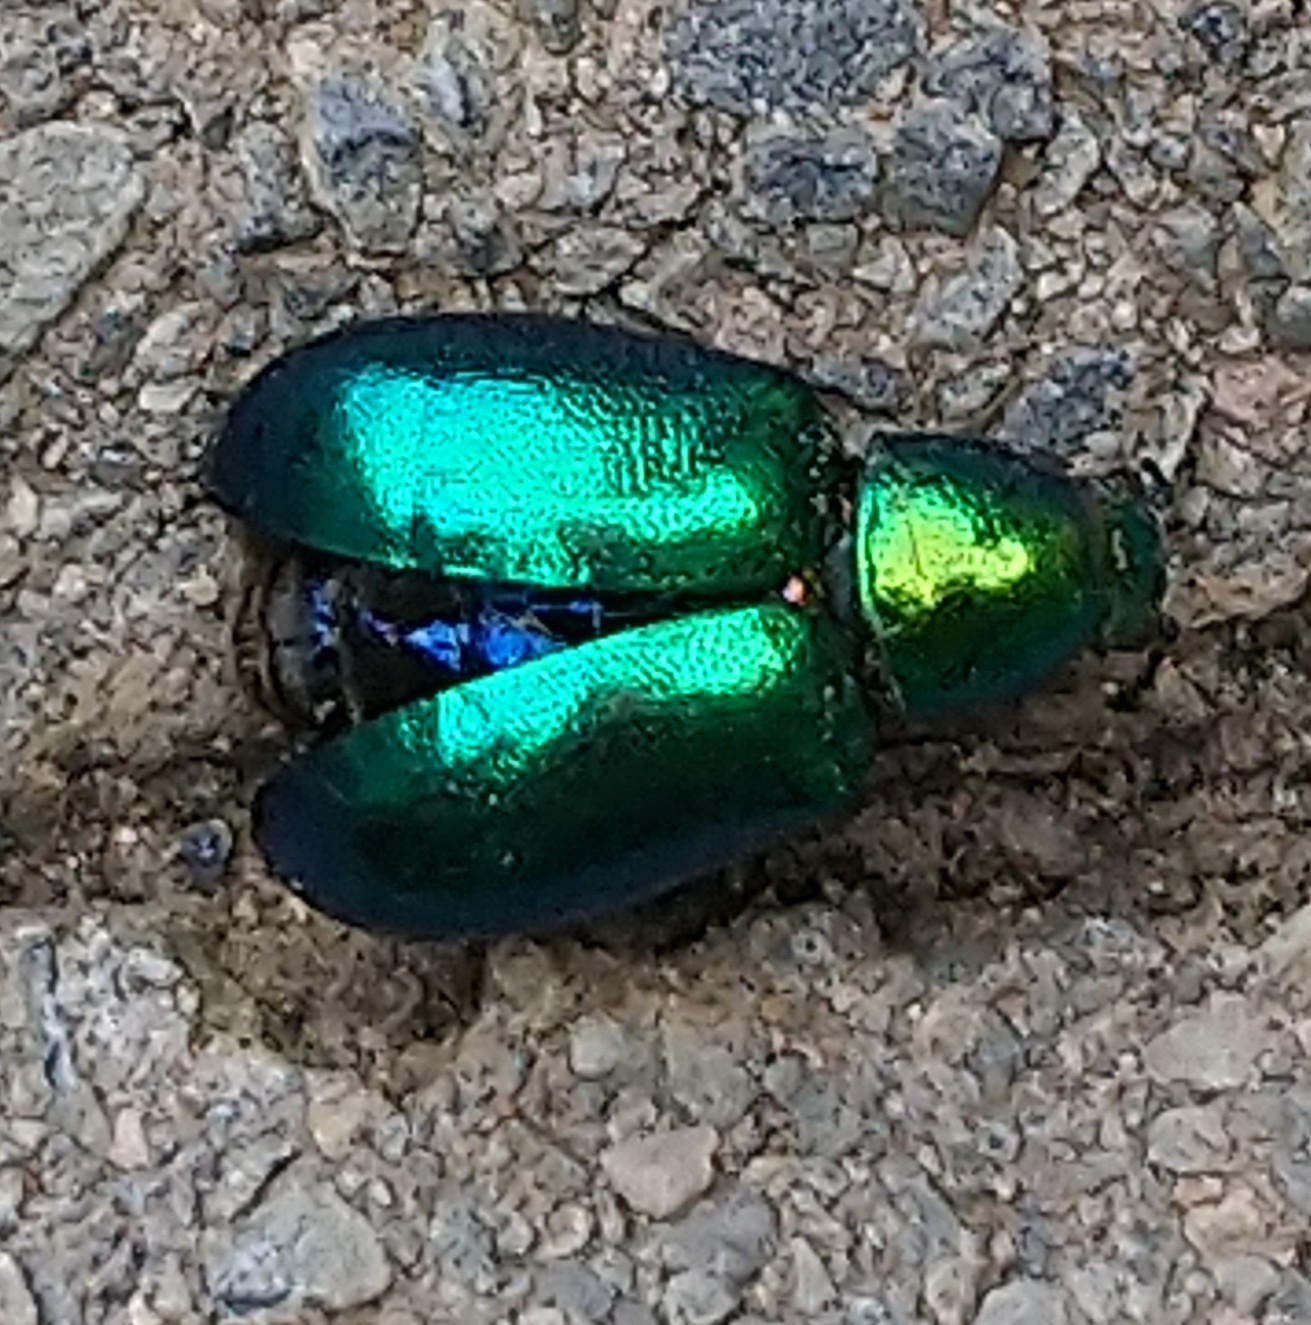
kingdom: Animalia
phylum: Arthropoda
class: Insecta
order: Coleoptera
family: Chrysomelidae
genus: Platycorynus
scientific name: Platycorynus dejeani
